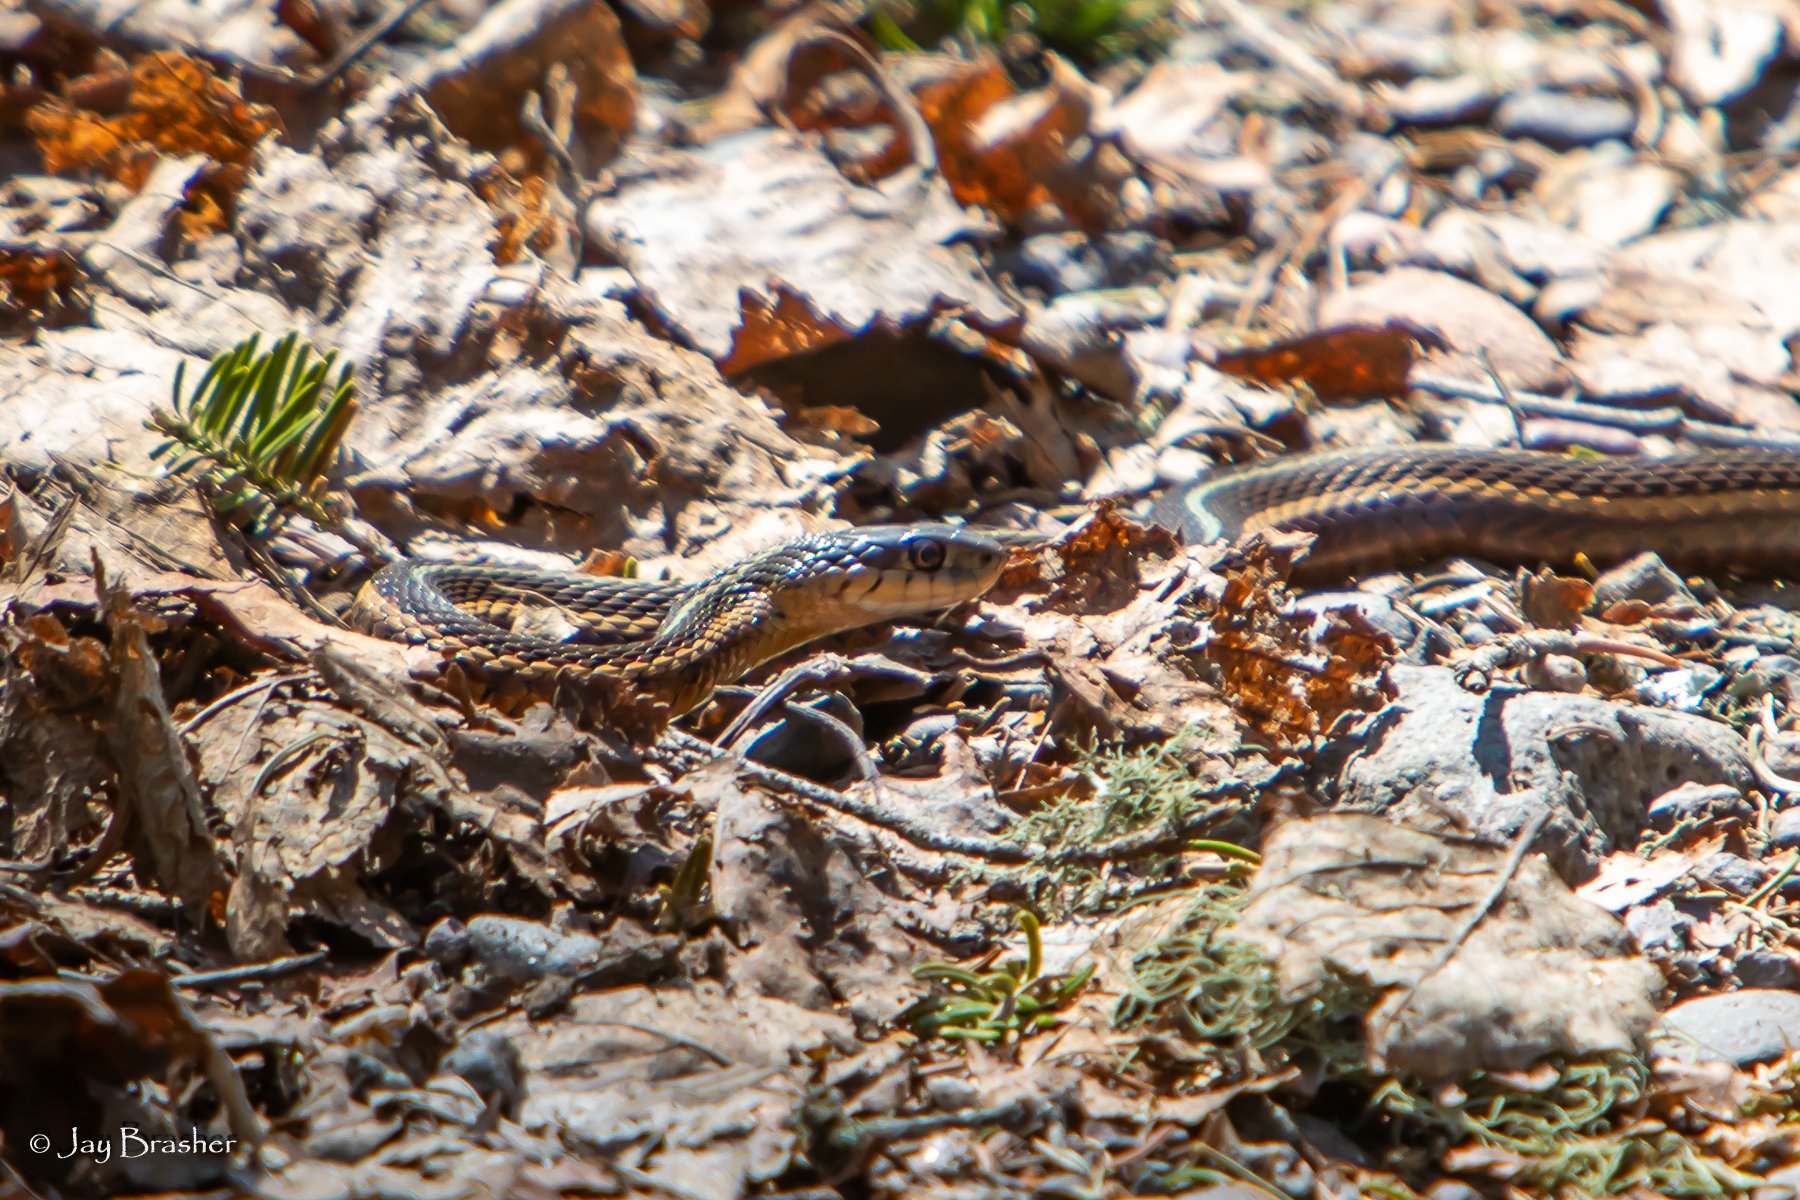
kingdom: Animalia
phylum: Chordata
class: Squamata
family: Colubridae
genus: Thamnophis
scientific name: Thamnophis sirtalis
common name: Common garter snake
